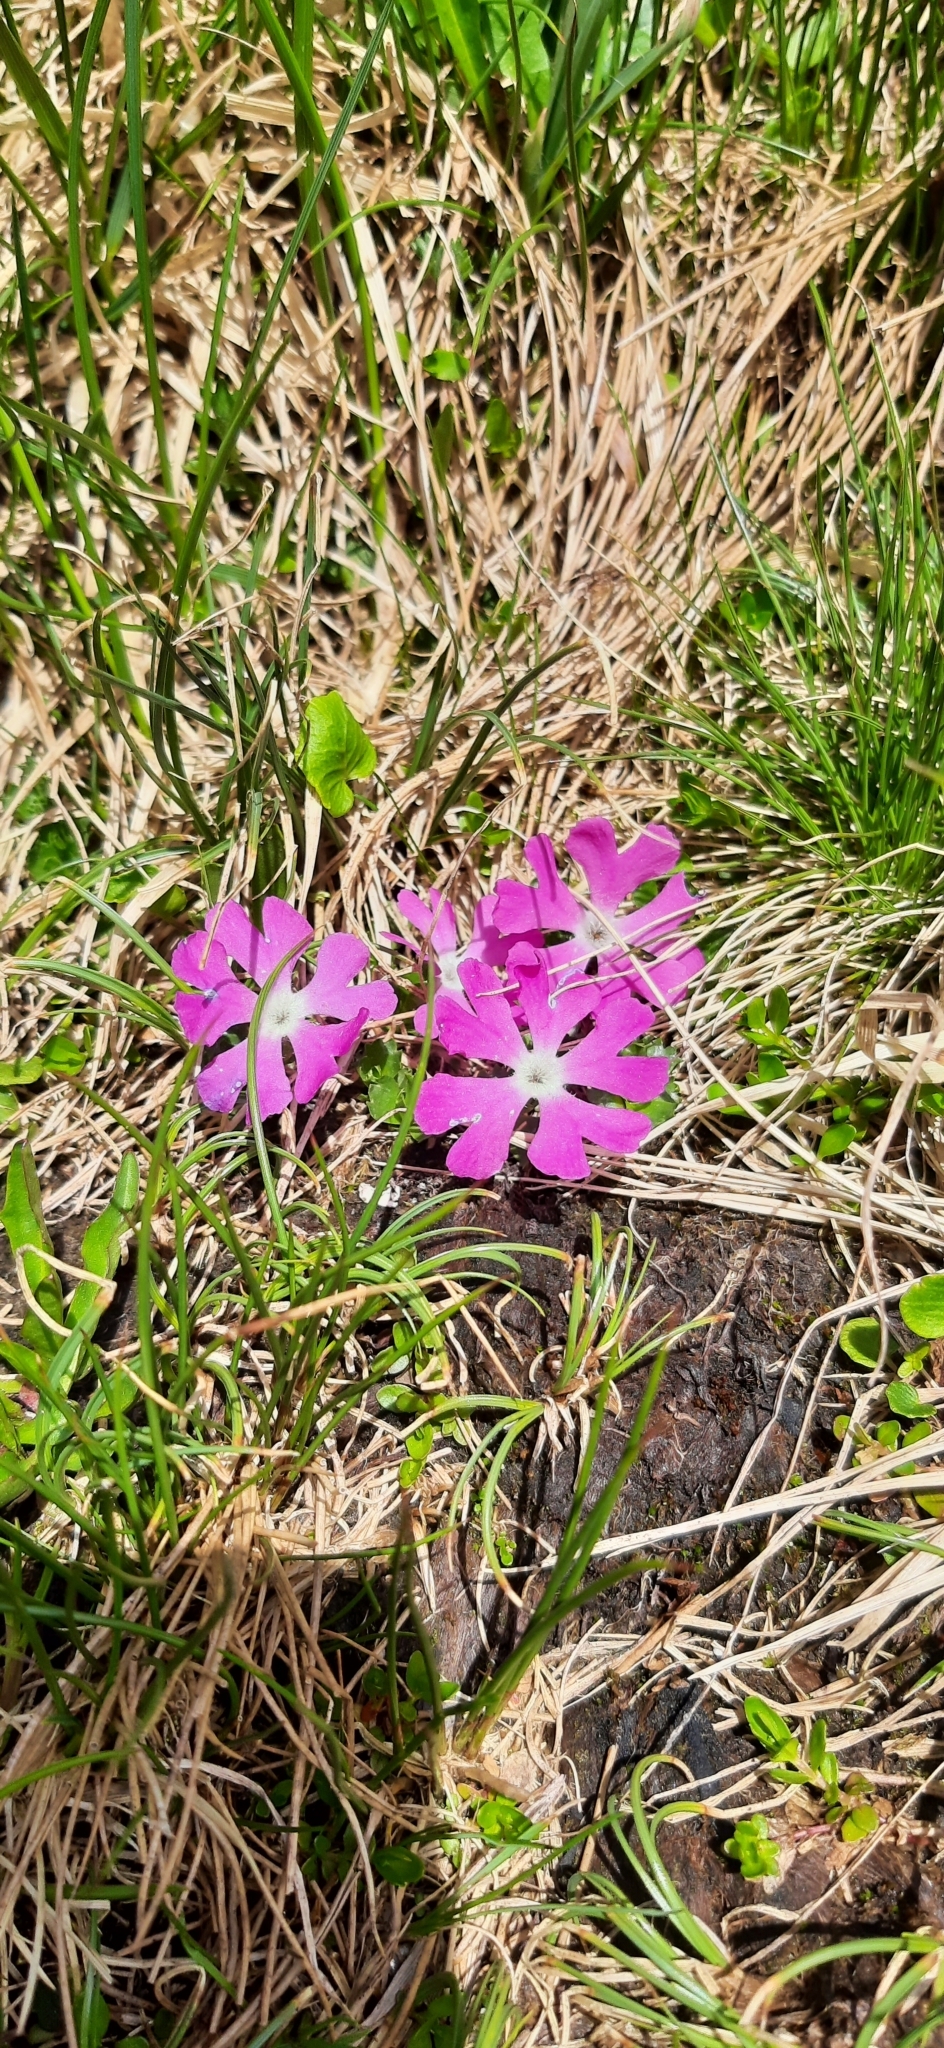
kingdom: Plantae
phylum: Tracheophyta
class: Magnoliopsida
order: Ericales
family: Primulaceae
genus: Primula
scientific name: Primula minima
